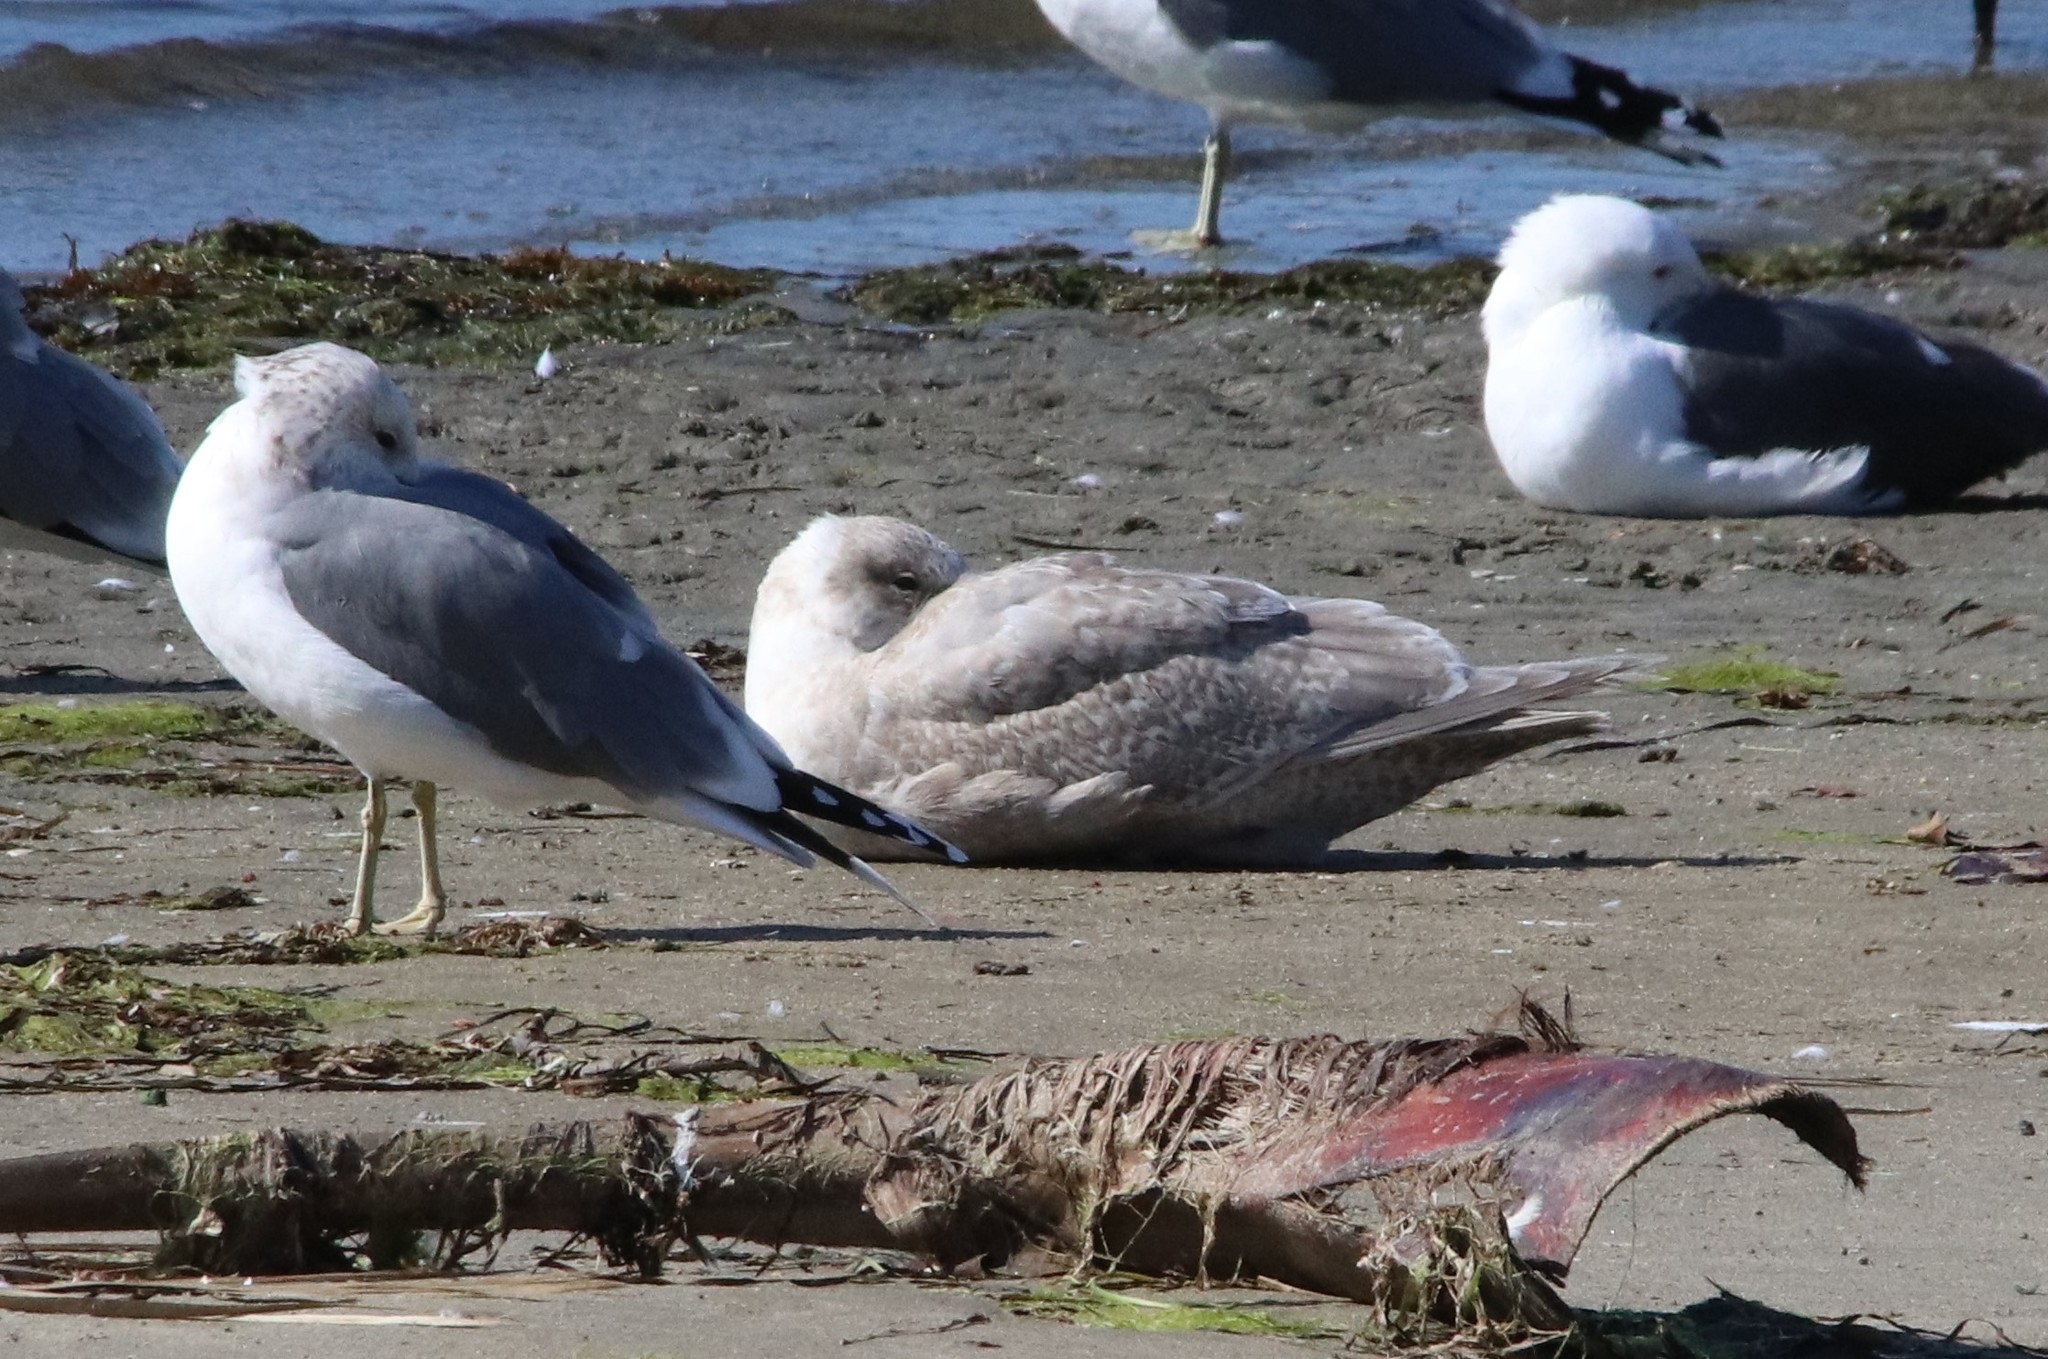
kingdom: Animalia
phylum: Chordata
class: Aves
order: Charadriiformes
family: Laridae
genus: Larus
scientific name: Larus glaucescens
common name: Glaucous-winged gull
